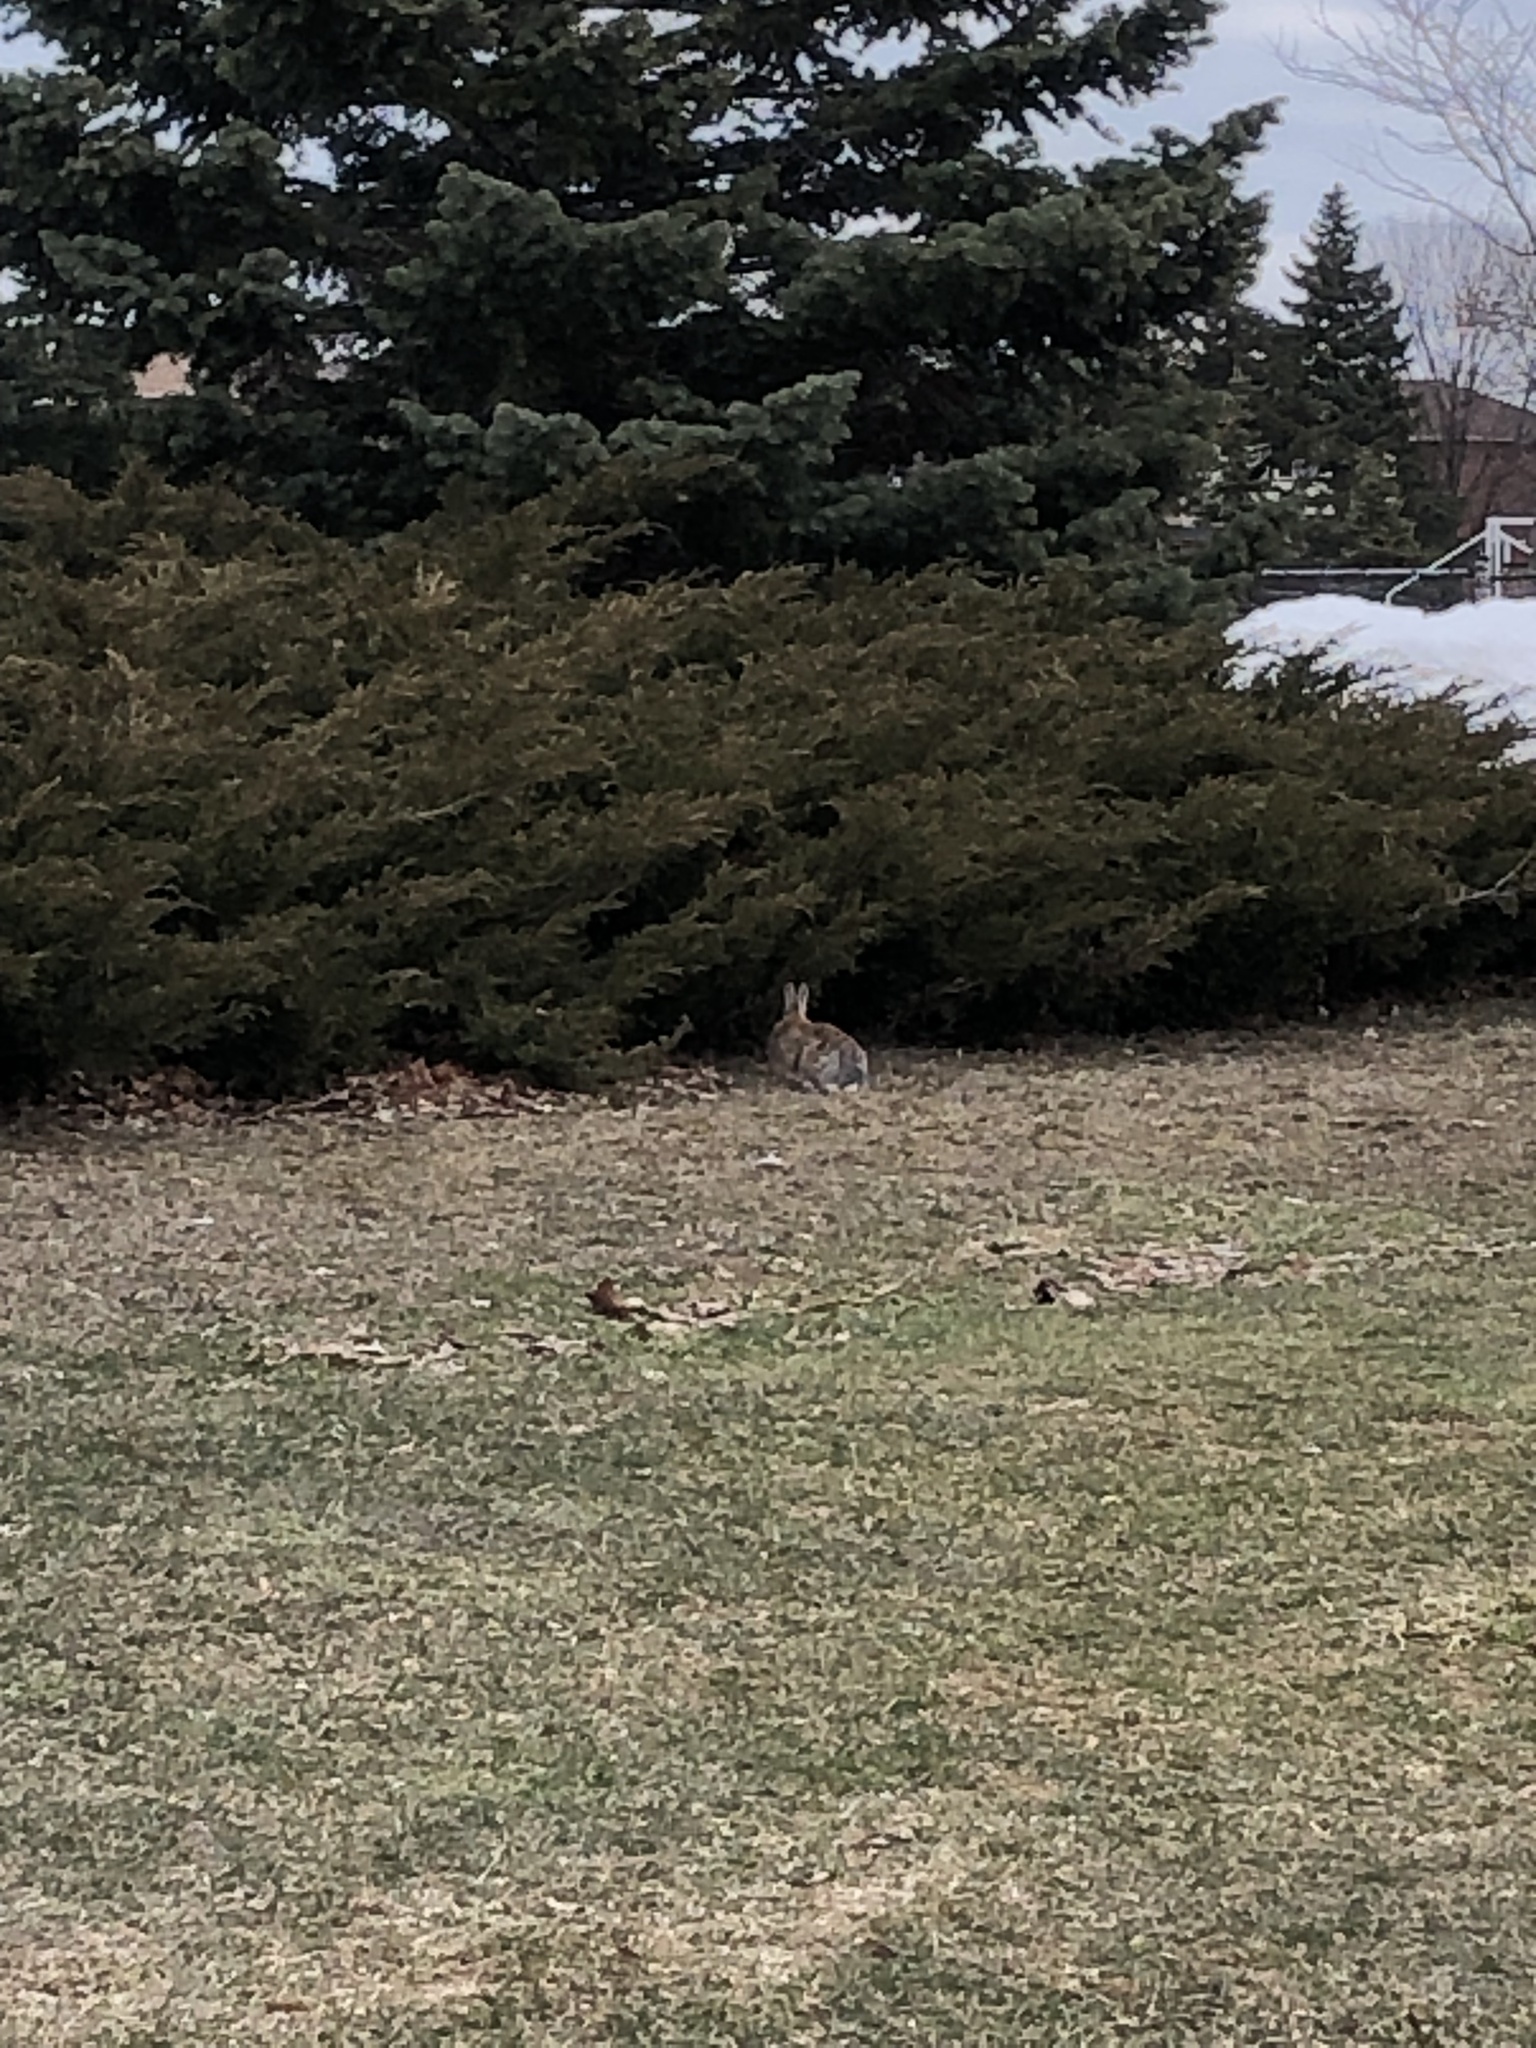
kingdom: Animalia
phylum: Chordata
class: Mammalia
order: Lagomorpha
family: Leporidae
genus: Sylvilagus
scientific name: Sylvilagus floridanus
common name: Eastern cottontail
